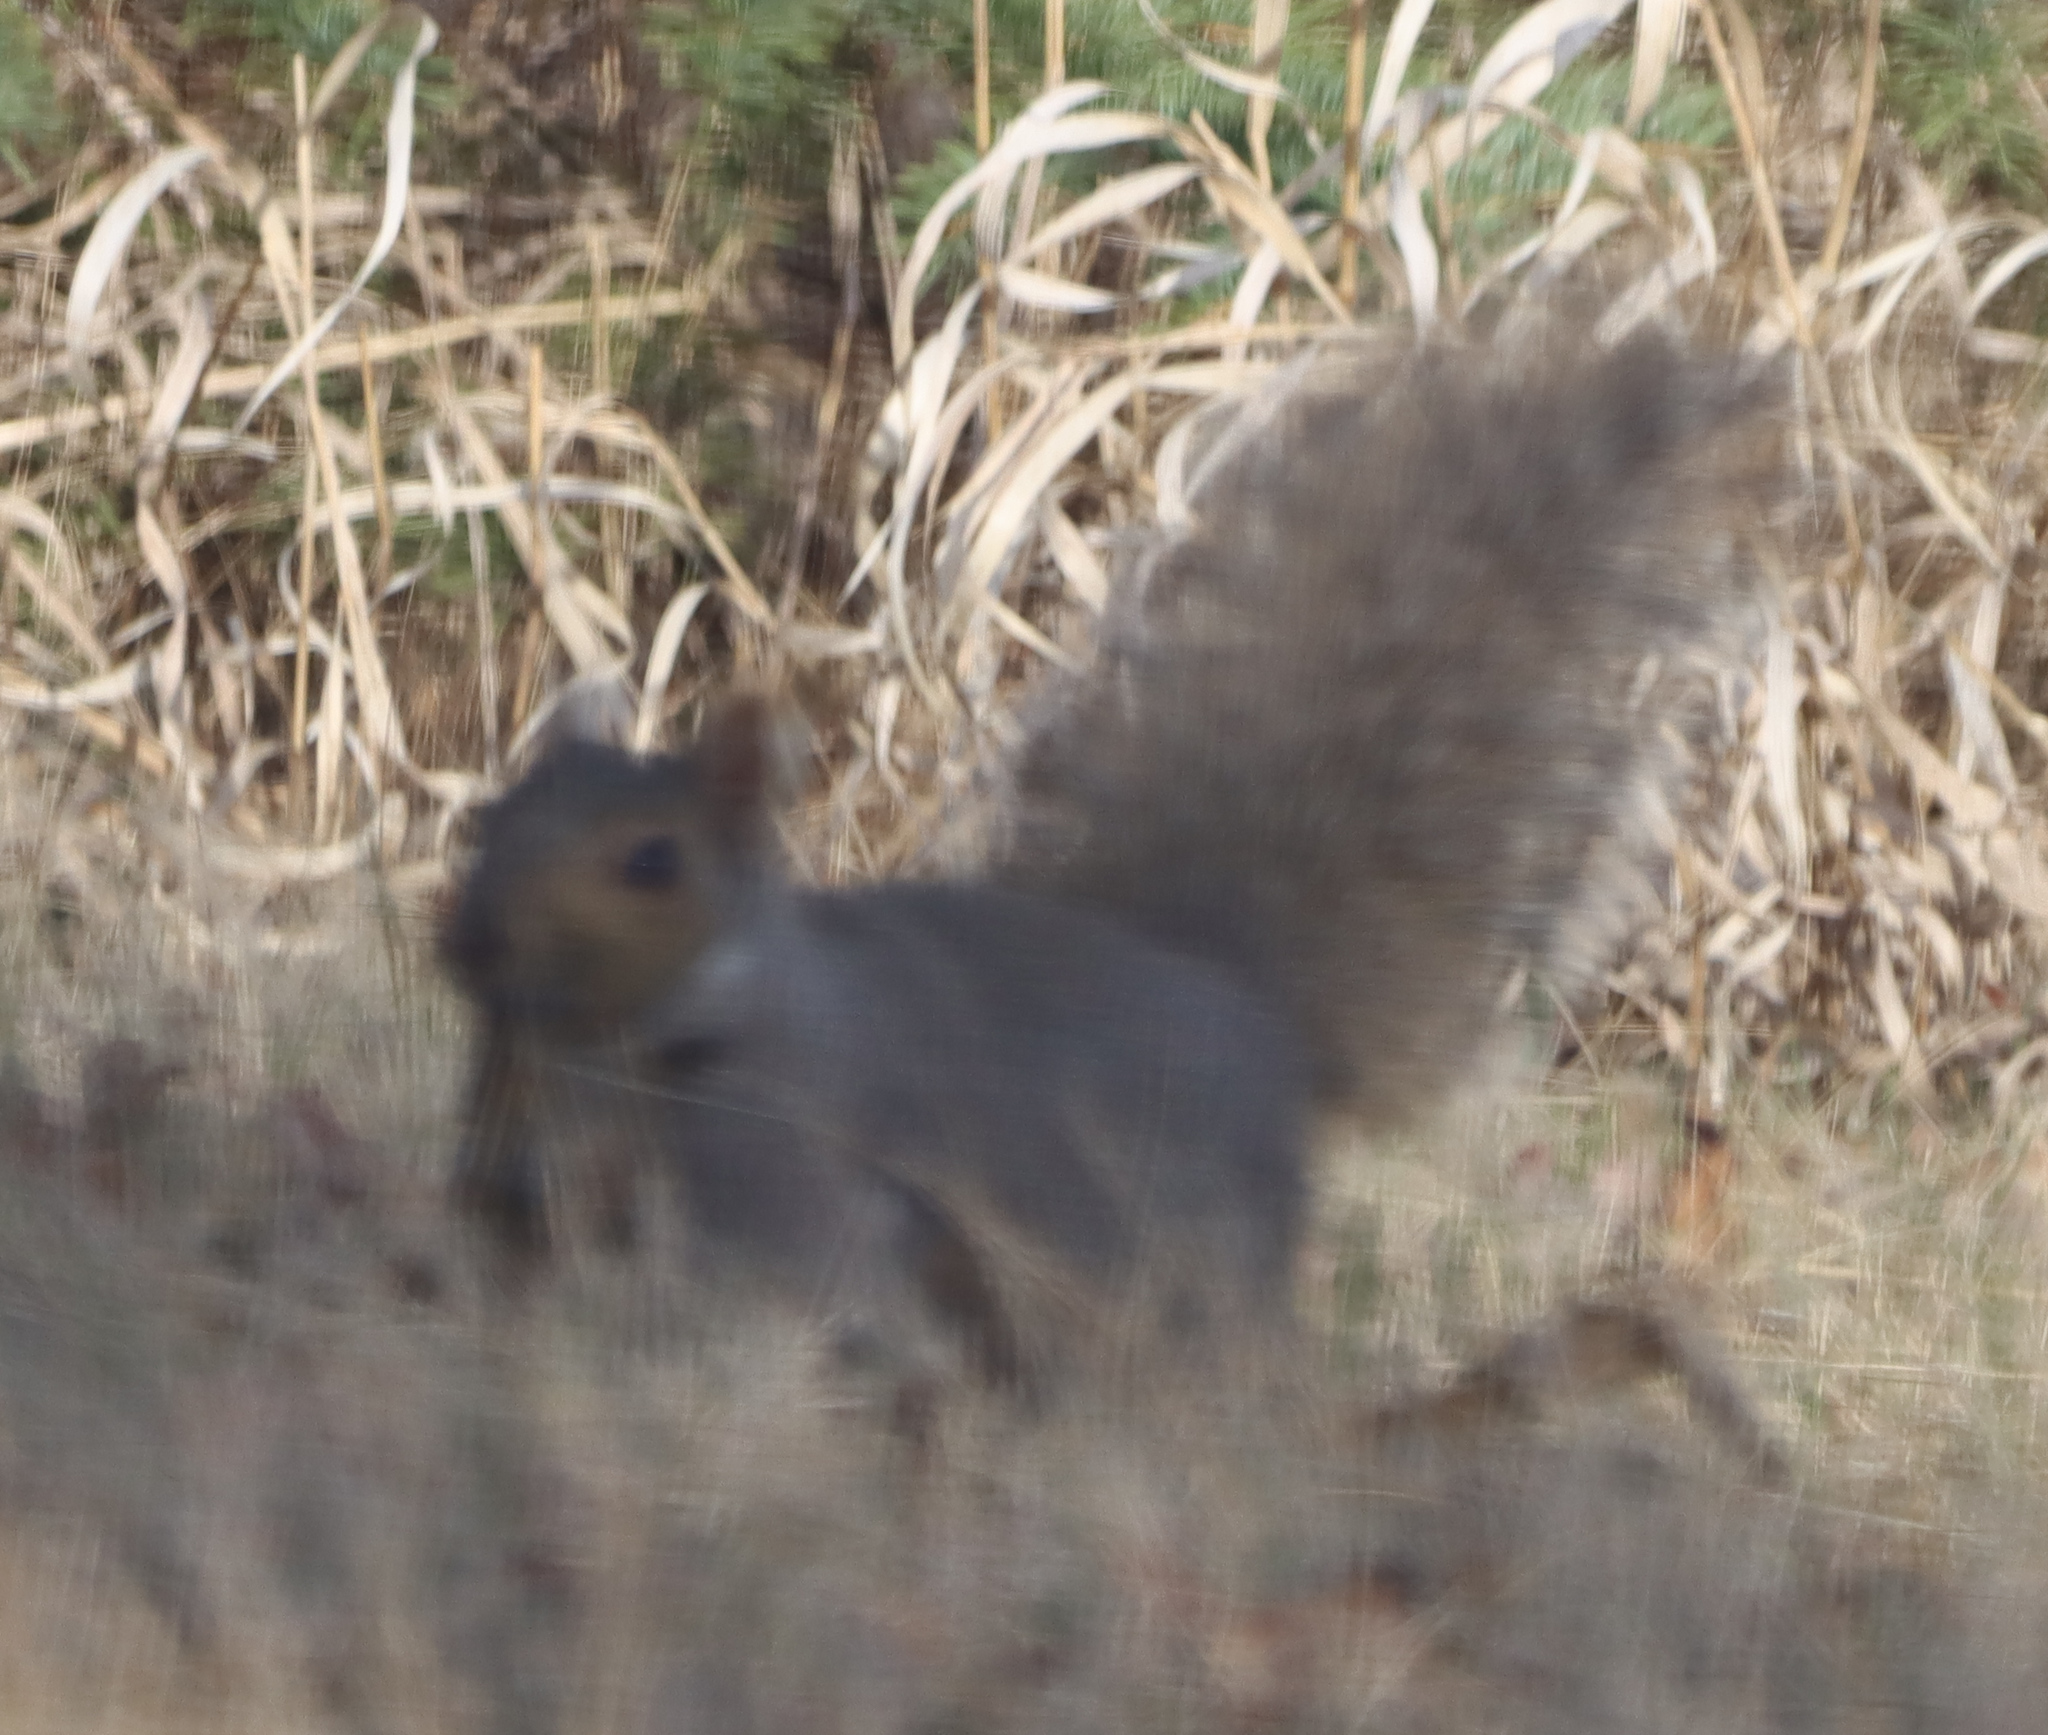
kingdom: Animalia
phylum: Chordata
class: Mammalia
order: Rodentia
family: Sciuridae
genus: Sciurus
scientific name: Sciurus carolinensis
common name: Eastern gray squirrel
